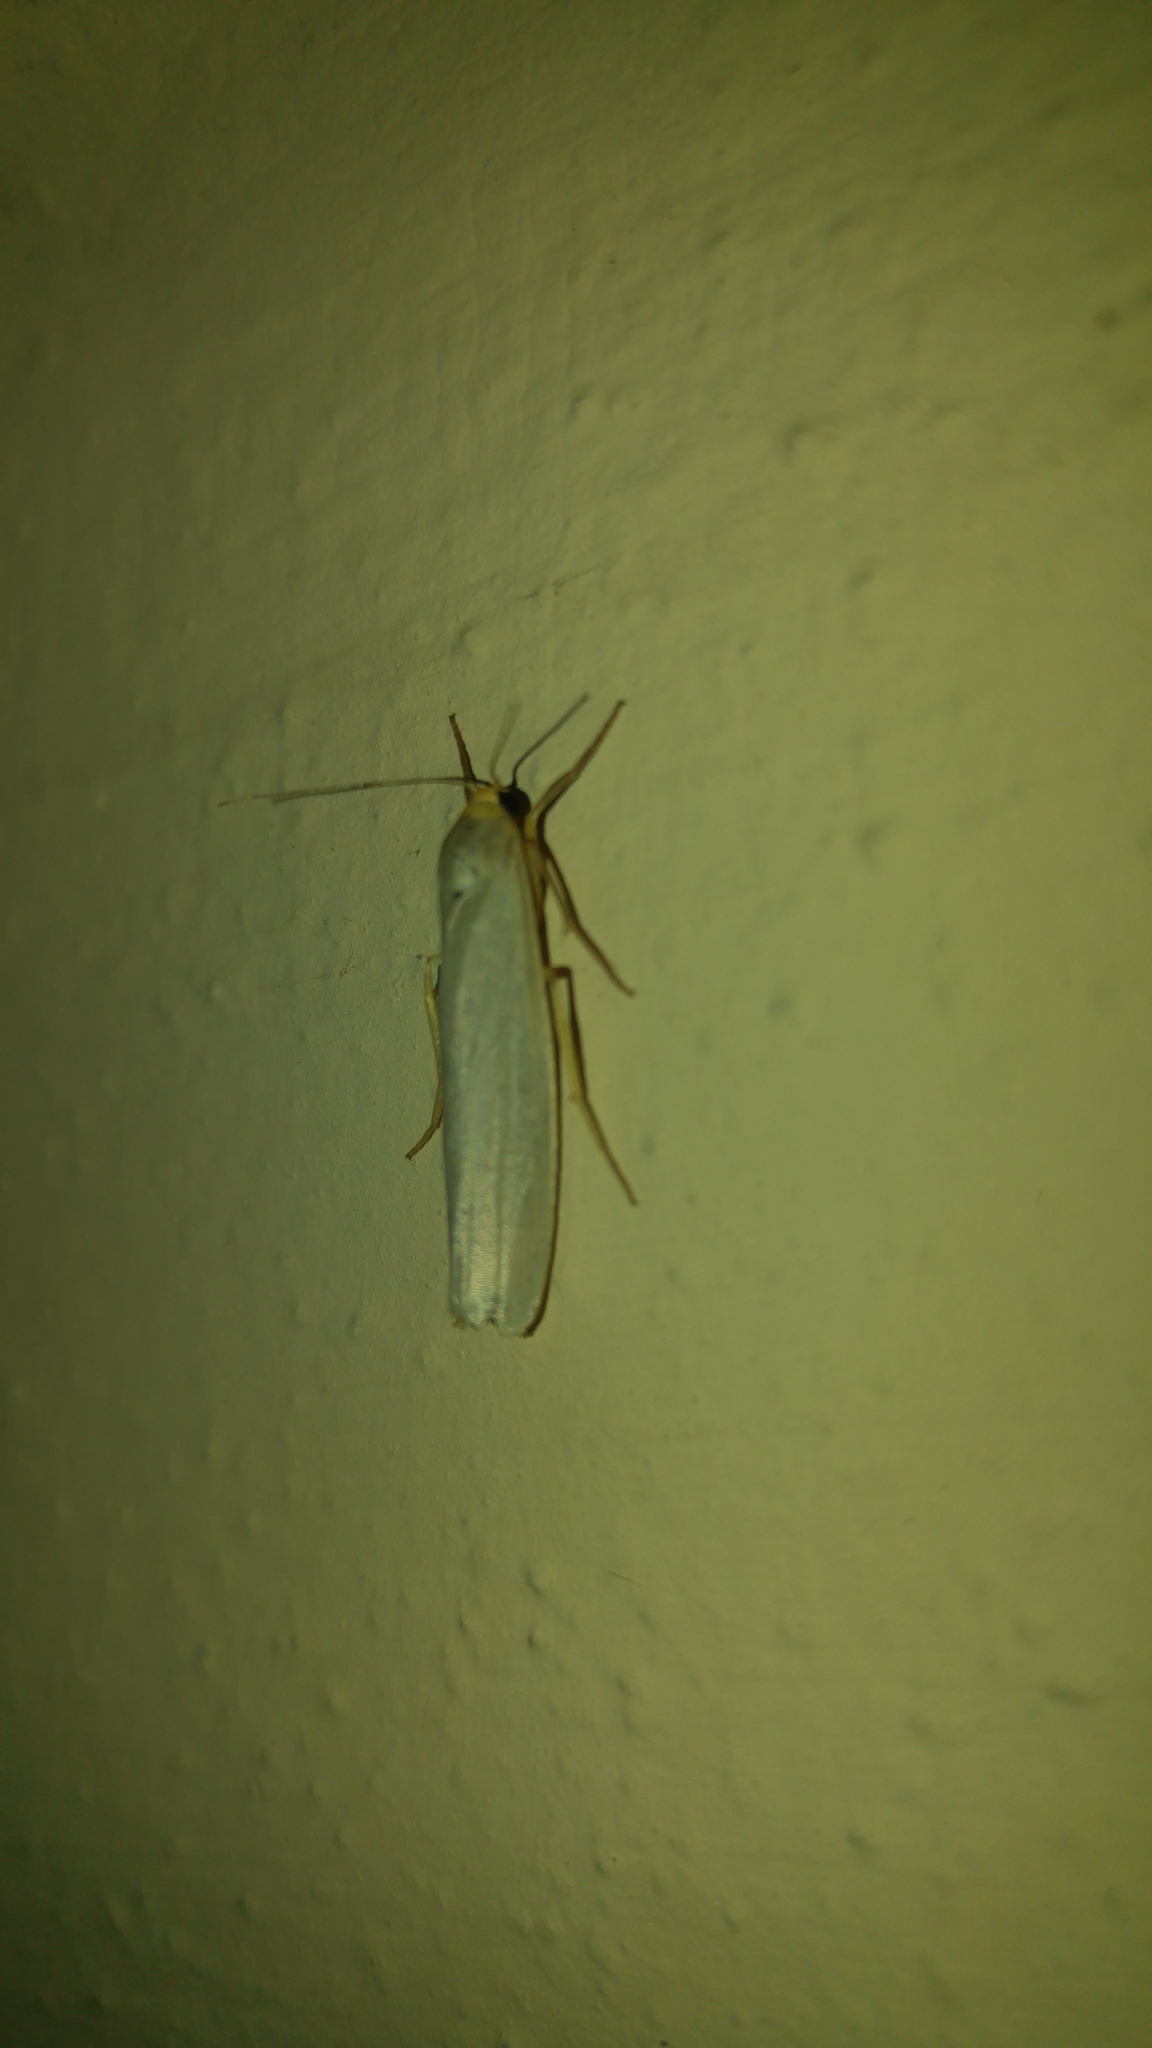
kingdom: Animalia
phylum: Arthropoda
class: Insecta
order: Lepidoptera
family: Erebidae
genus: Eilema
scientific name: Eilema caniola
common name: Hoary footman
